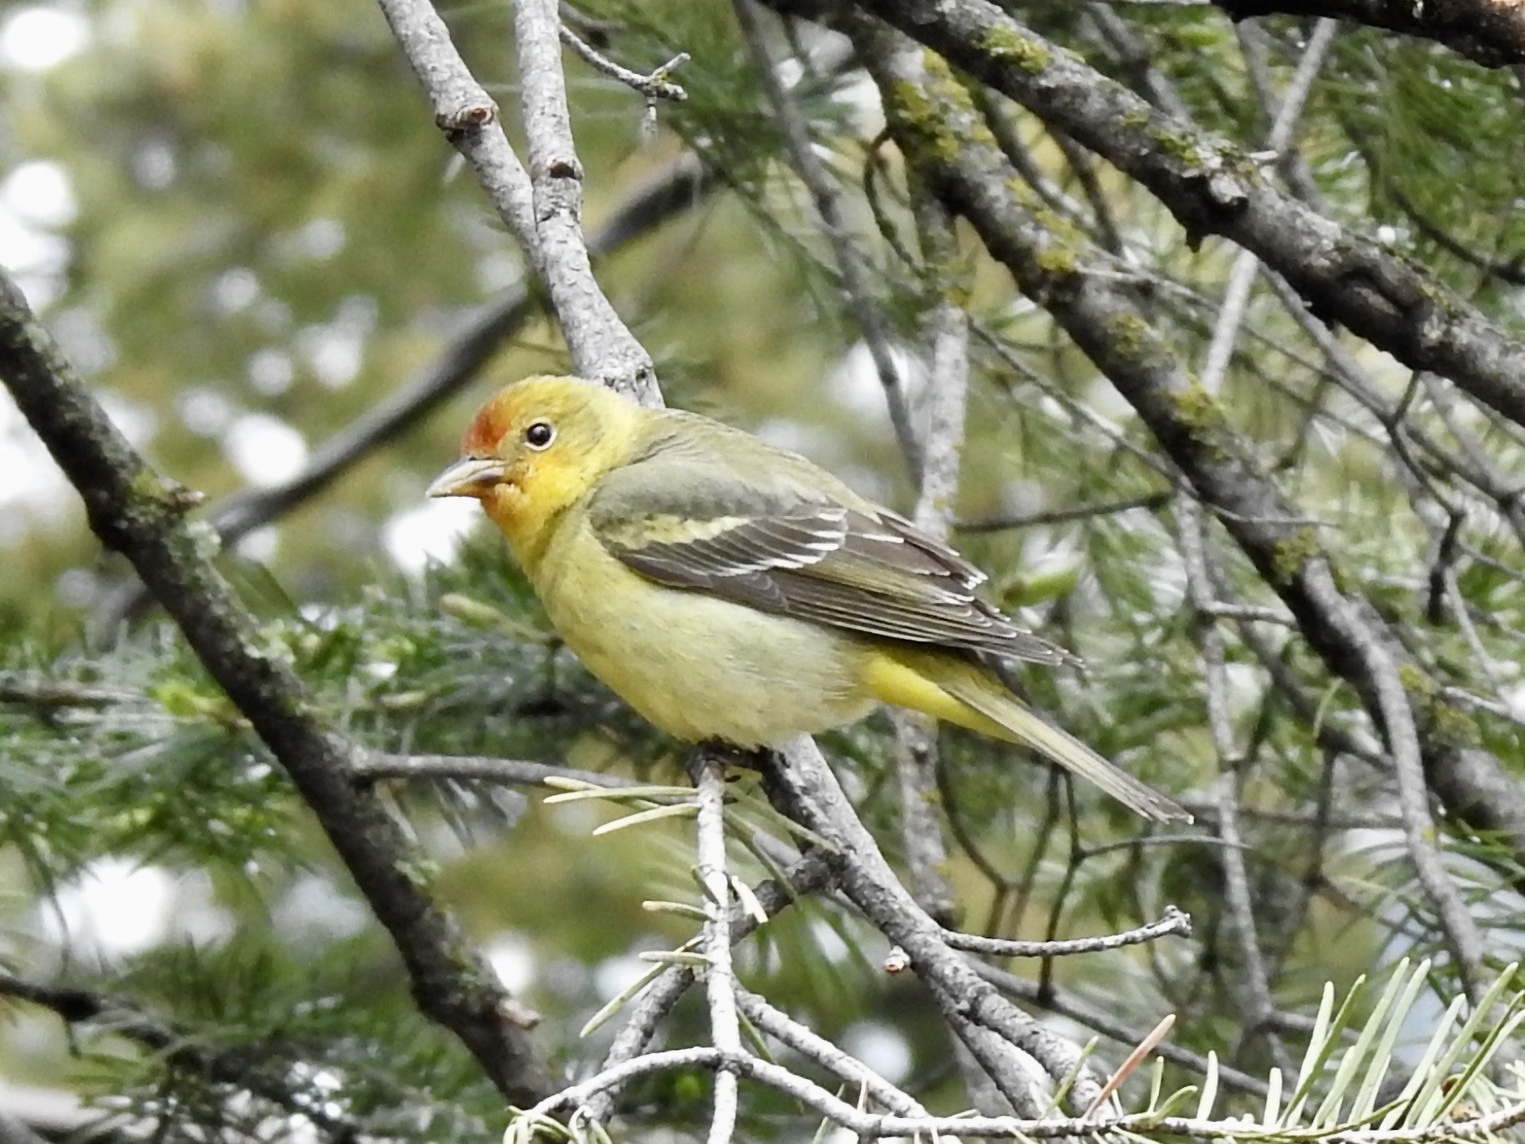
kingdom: Animalia
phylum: Chordata
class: Aves
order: Passeriformes
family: Cardinalidae
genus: Piranga
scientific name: Piranga ludoviciana
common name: Western tanager
